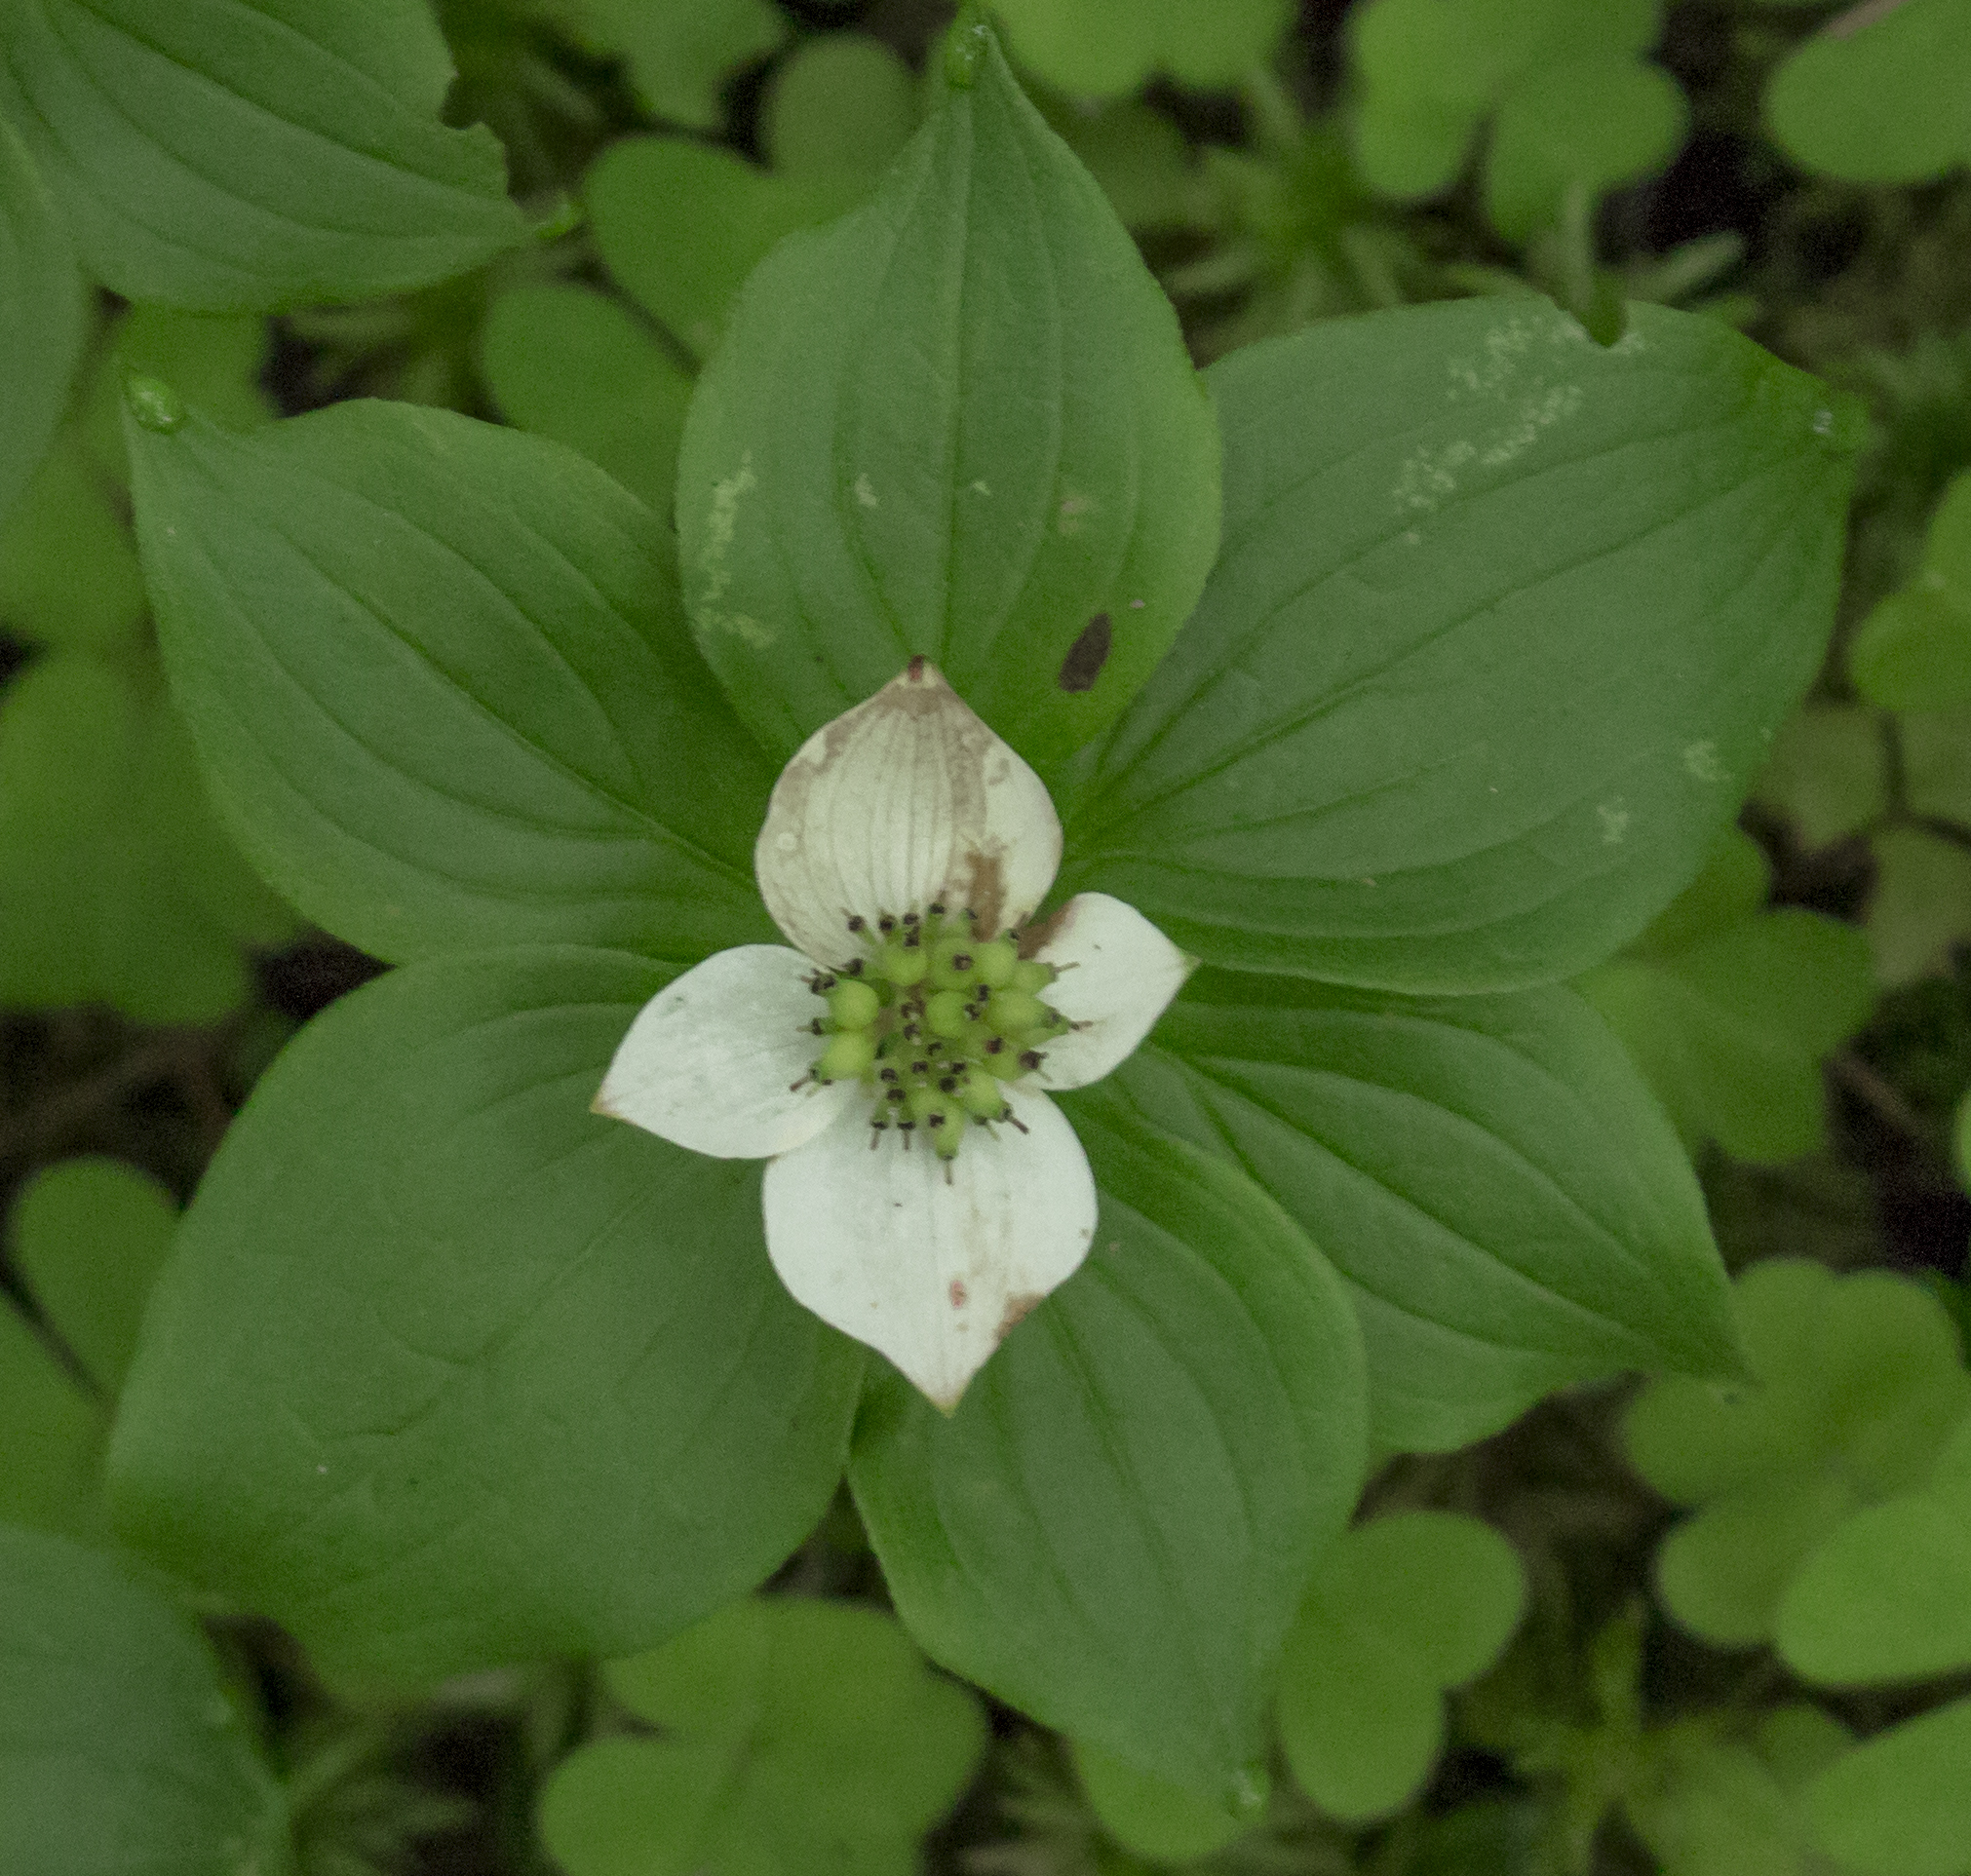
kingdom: Plantae
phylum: Tracheophyta
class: Magnoliopsida
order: Cornales
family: Cornaceae
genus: Cornus
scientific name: Cornus canadensis
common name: Creeping dogwood
